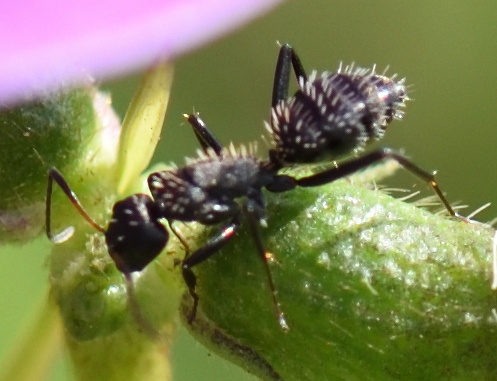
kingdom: Animalia
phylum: Arthropoda
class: Insecta
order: Hymenoptera
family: Formicidae
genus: Camponotus
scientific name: Camponotus niveosetosus
